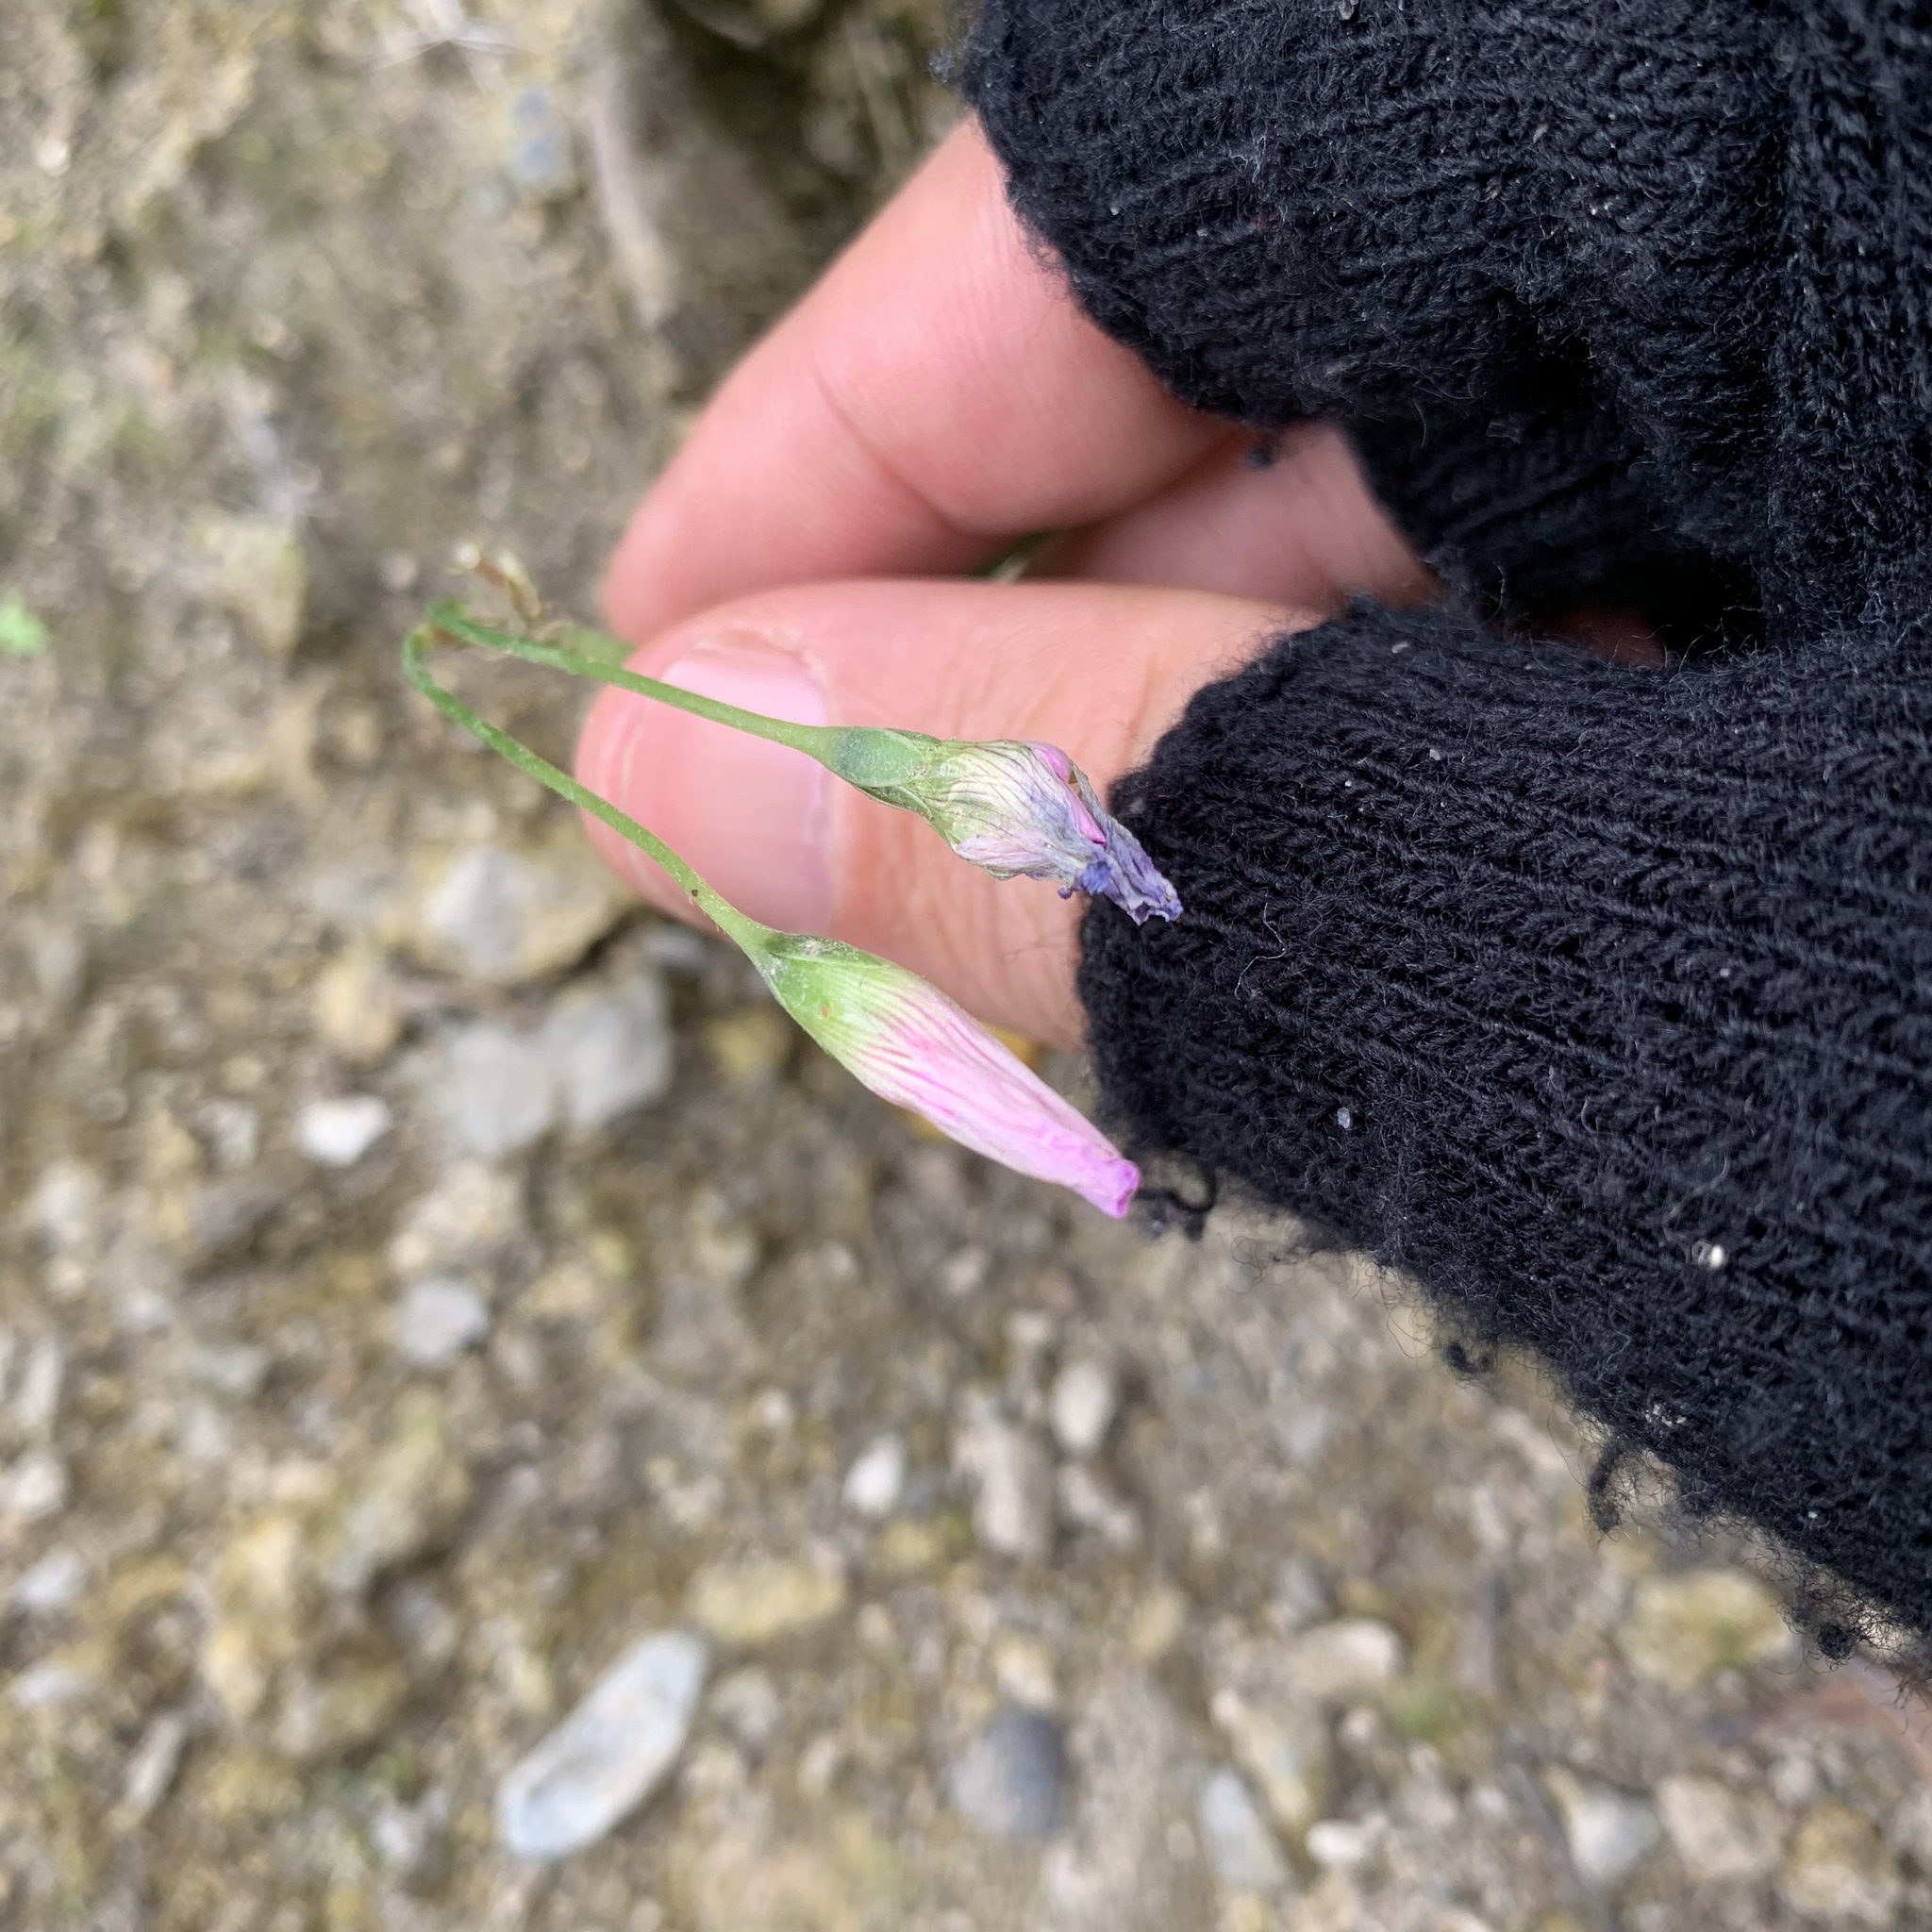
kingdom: Plantae
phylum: Tracheophyta
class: Magnoliopsida
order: Oxalidales
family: Oxalidaceae
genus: Oxalis
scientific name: Oxalis debilis
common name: Large-flowered pink-sorrel
